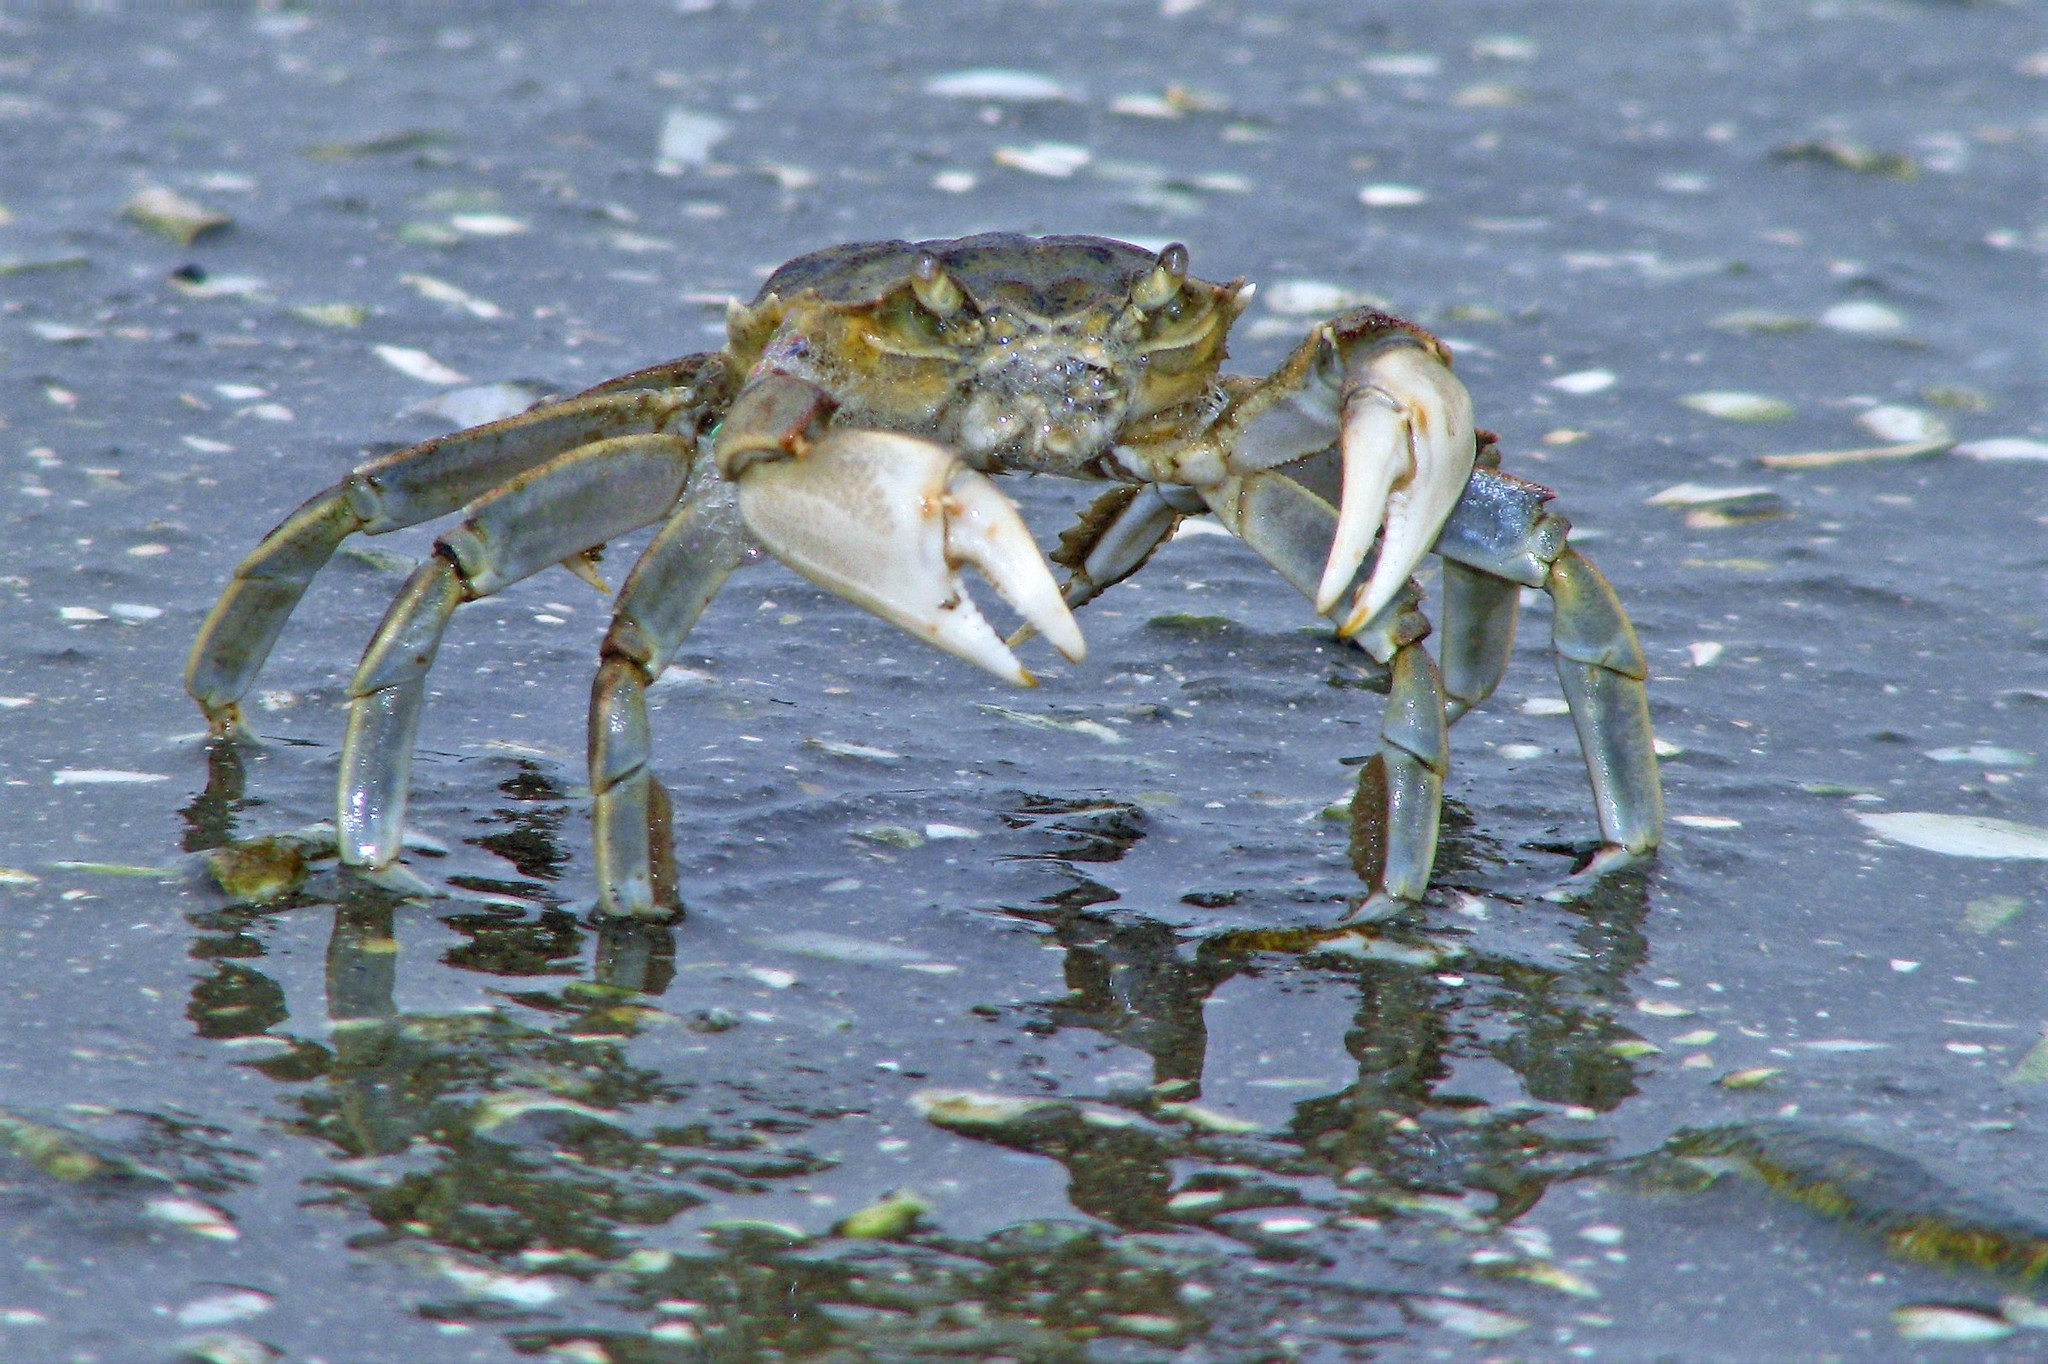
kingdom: Animalia
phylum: Arthropoda
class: Malacostraca
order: Decapoda
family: Varunidae
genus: Cyrtograpsus
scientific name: Cyrtograpsus angulatus
